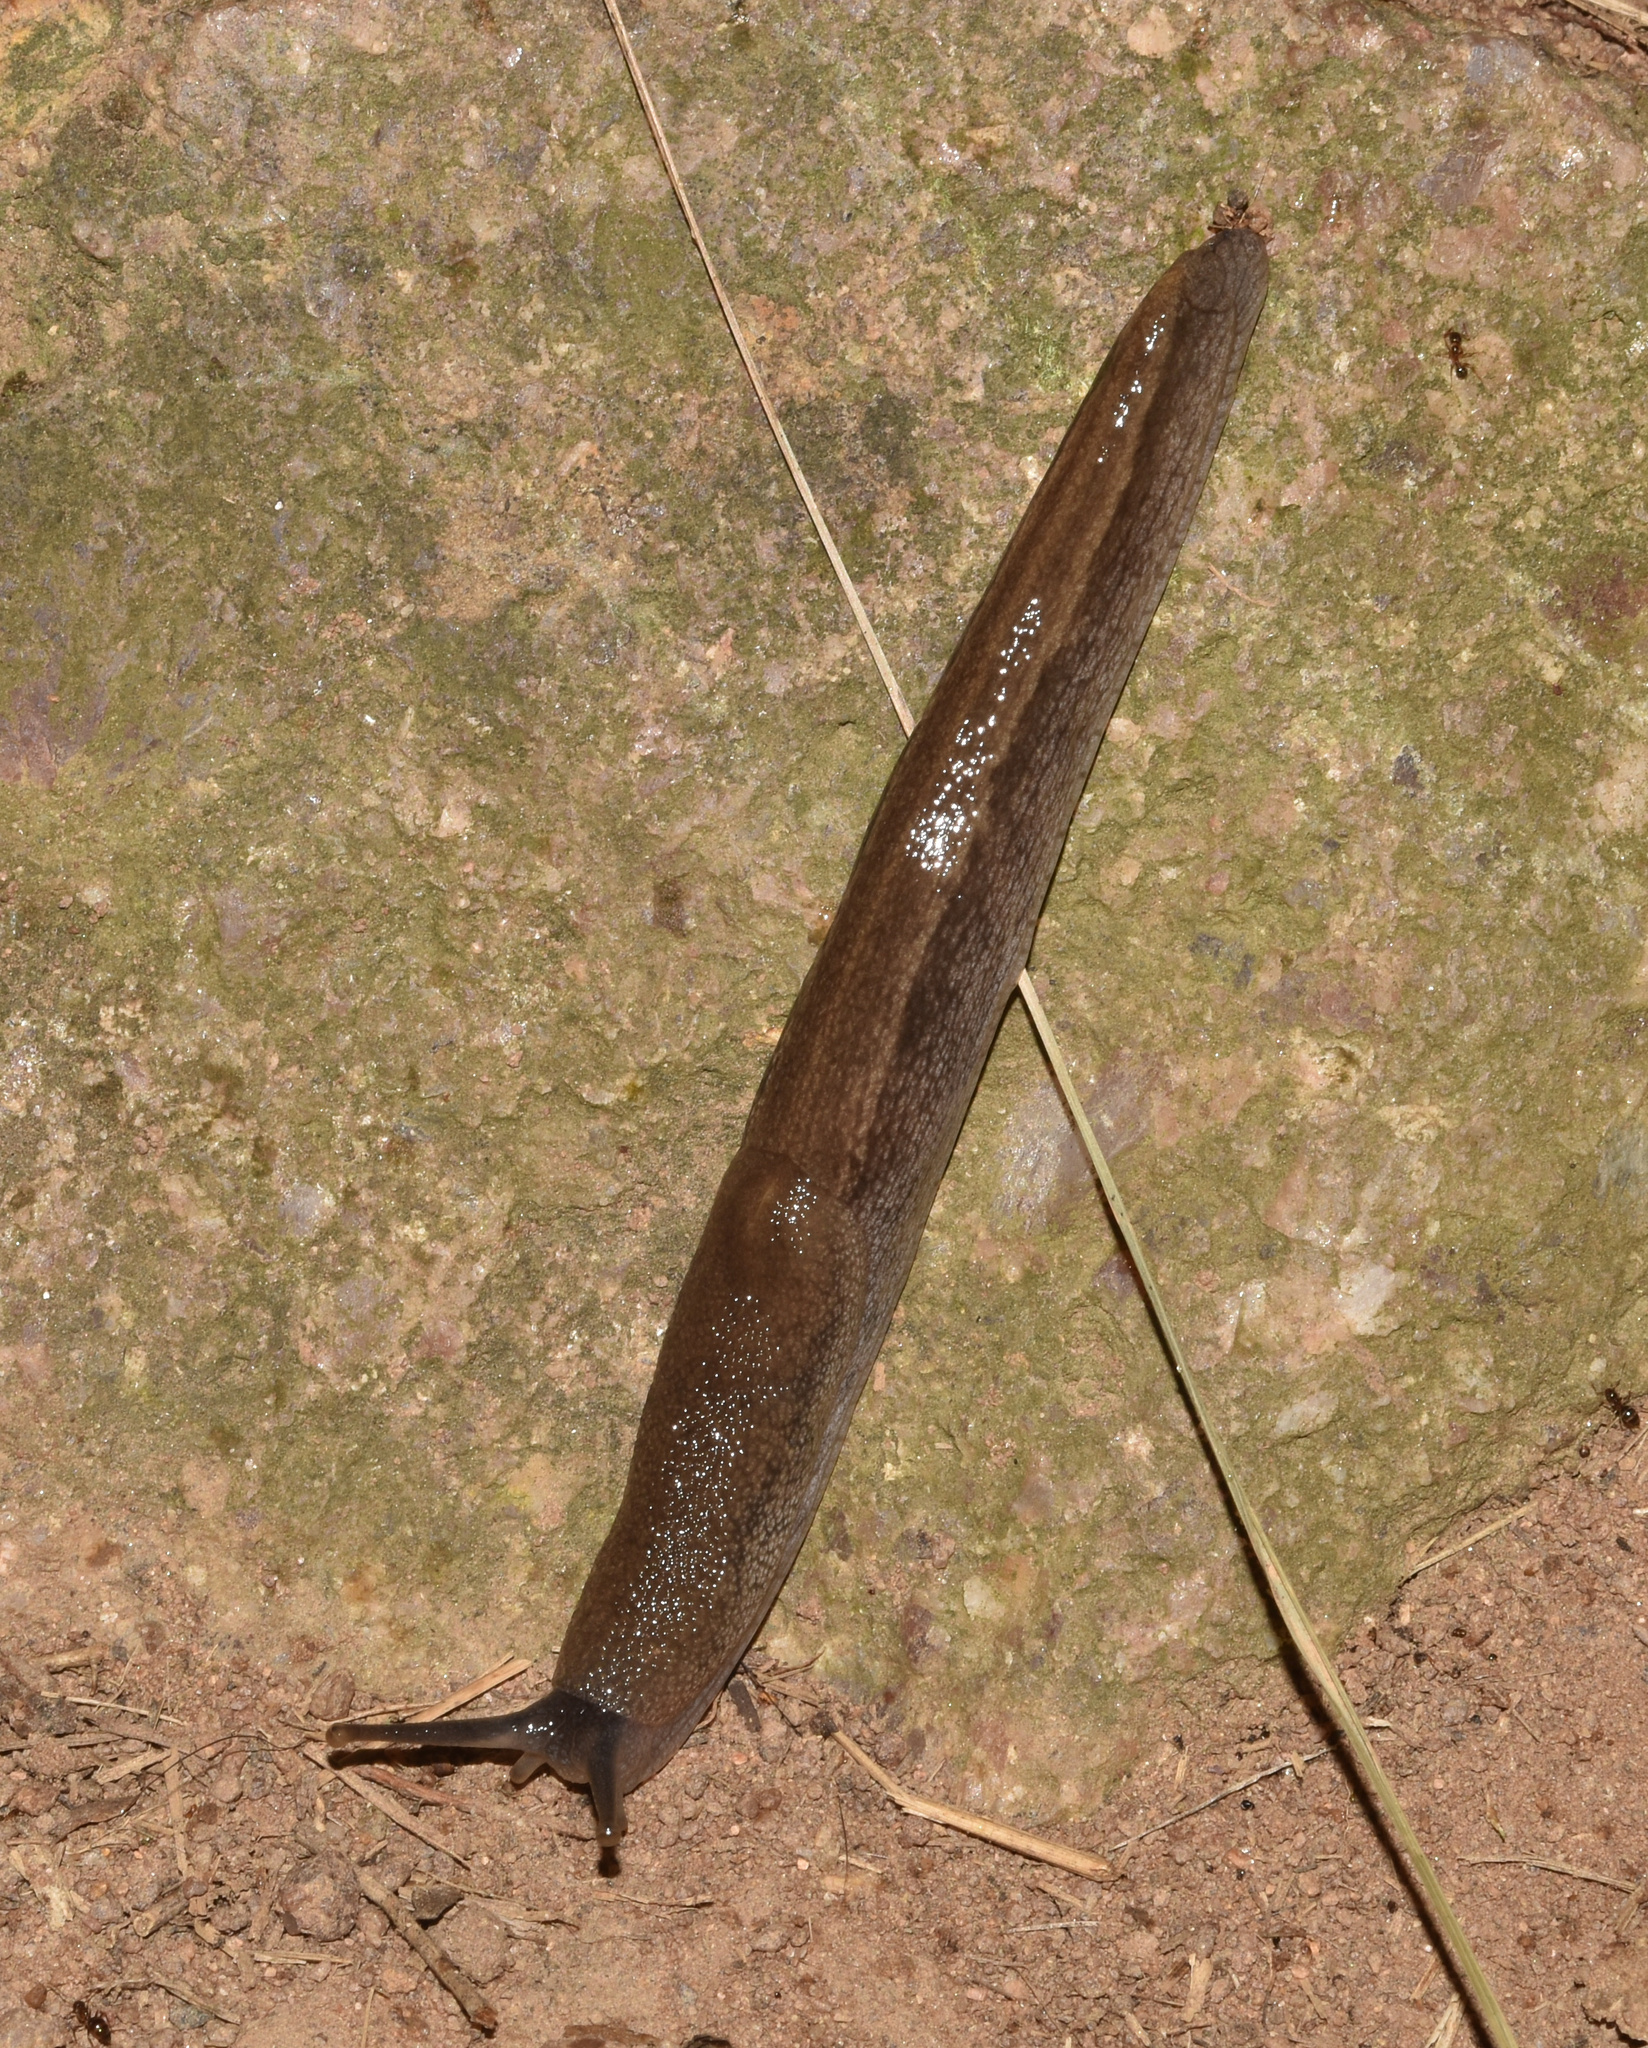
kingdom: Animalia
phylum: Mollusca
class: Gastropoda
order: Stylommatophora
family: Urocyclidae
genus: Urocyclus
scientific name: Urocyclus kirkii
